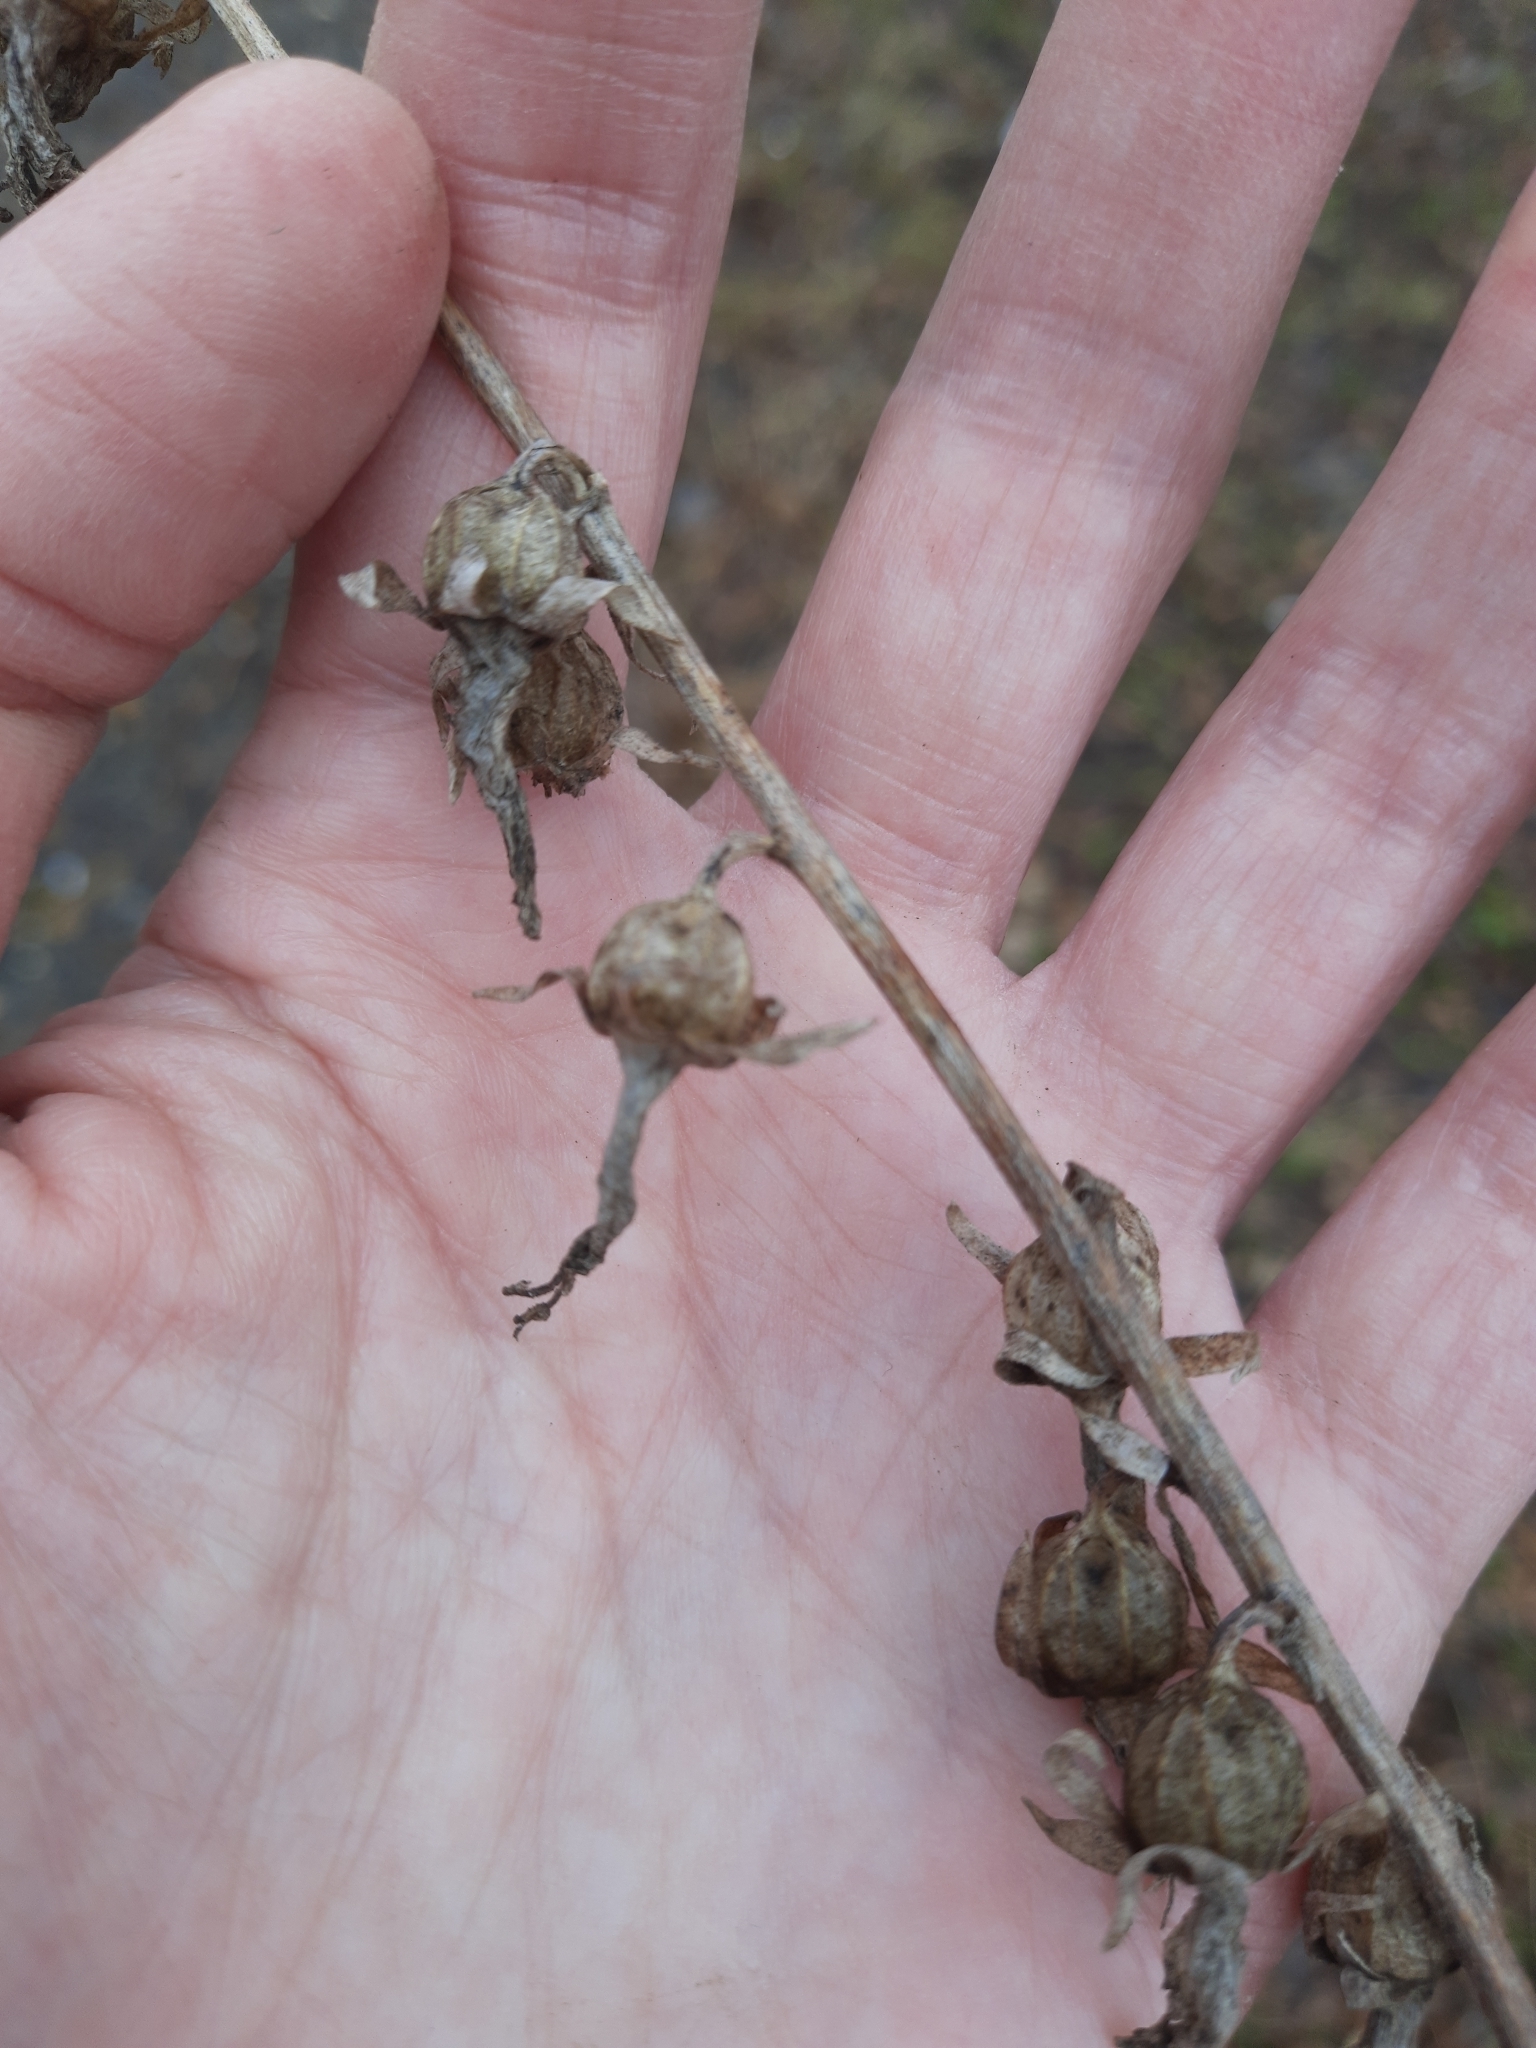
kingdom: Plantae
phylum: Tracheophyta
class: Magnoliopsida
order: Asterales
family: Campanulaceae
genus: Campanula
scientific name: Campanula rapunculoides
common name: Creeping bellflower
